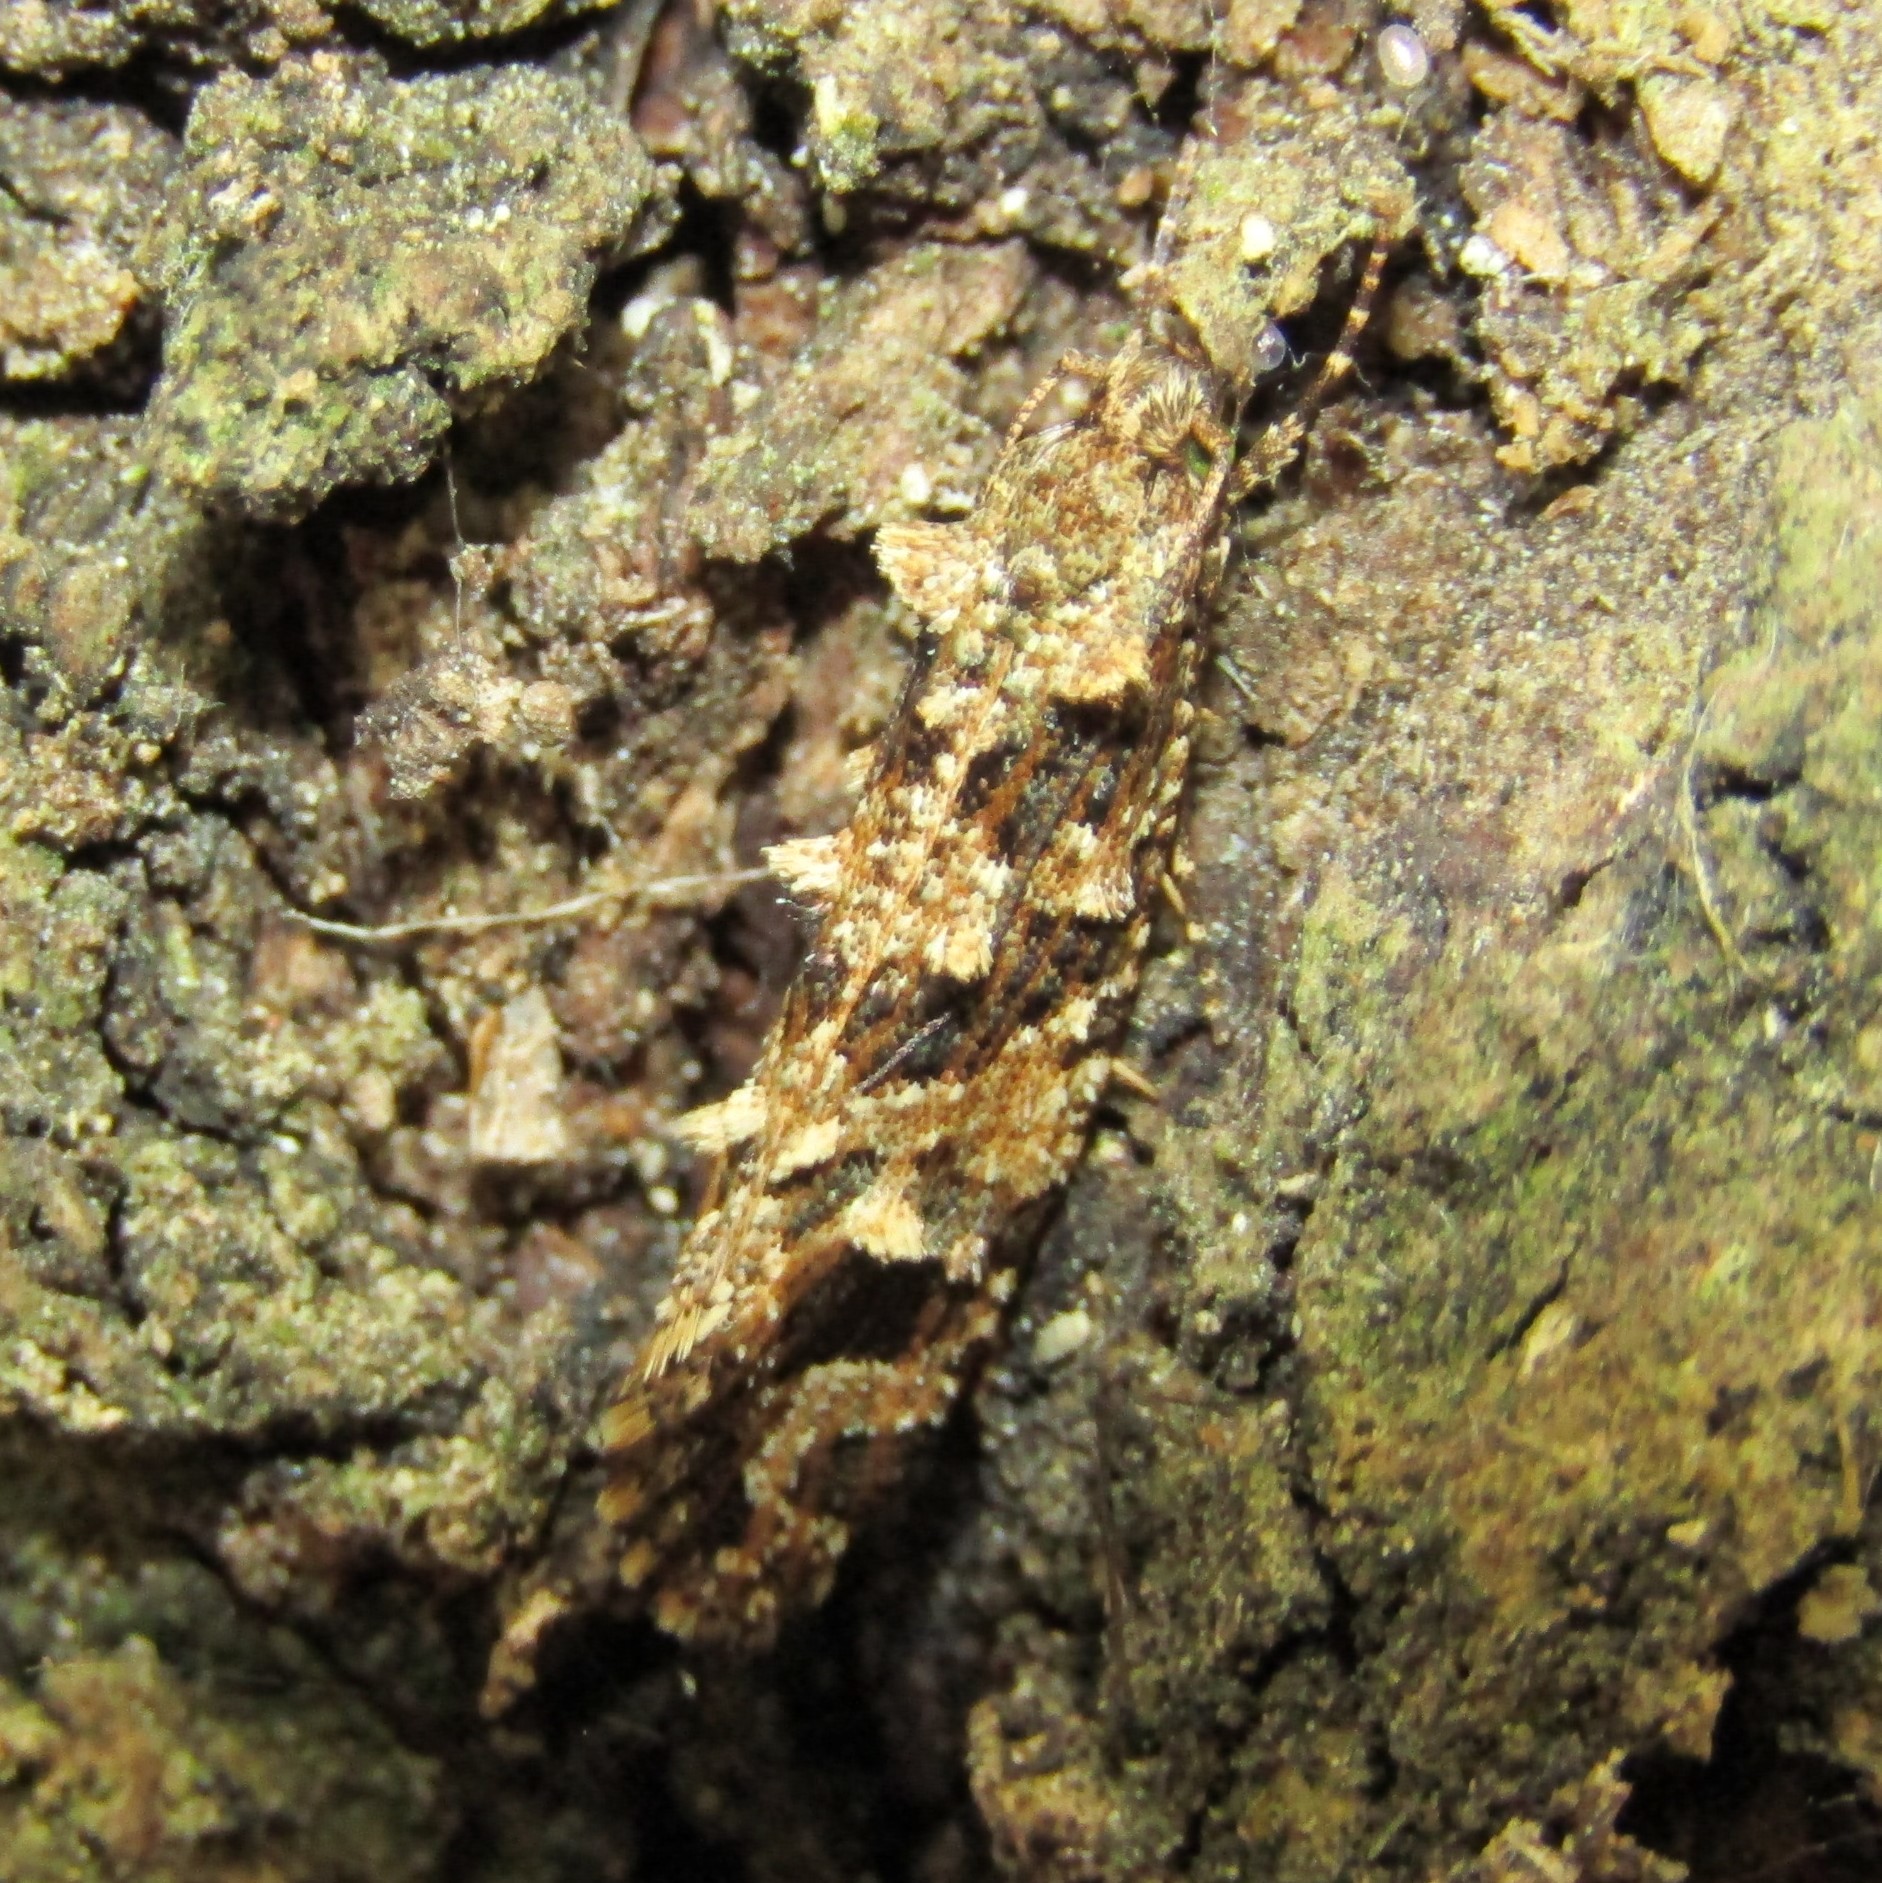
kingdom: Animalia
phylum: Arthropoda
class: Insecta
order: Lepidoptera
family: Tineidae
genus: Lysiphragma
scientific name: Lysiphragma epixyla
